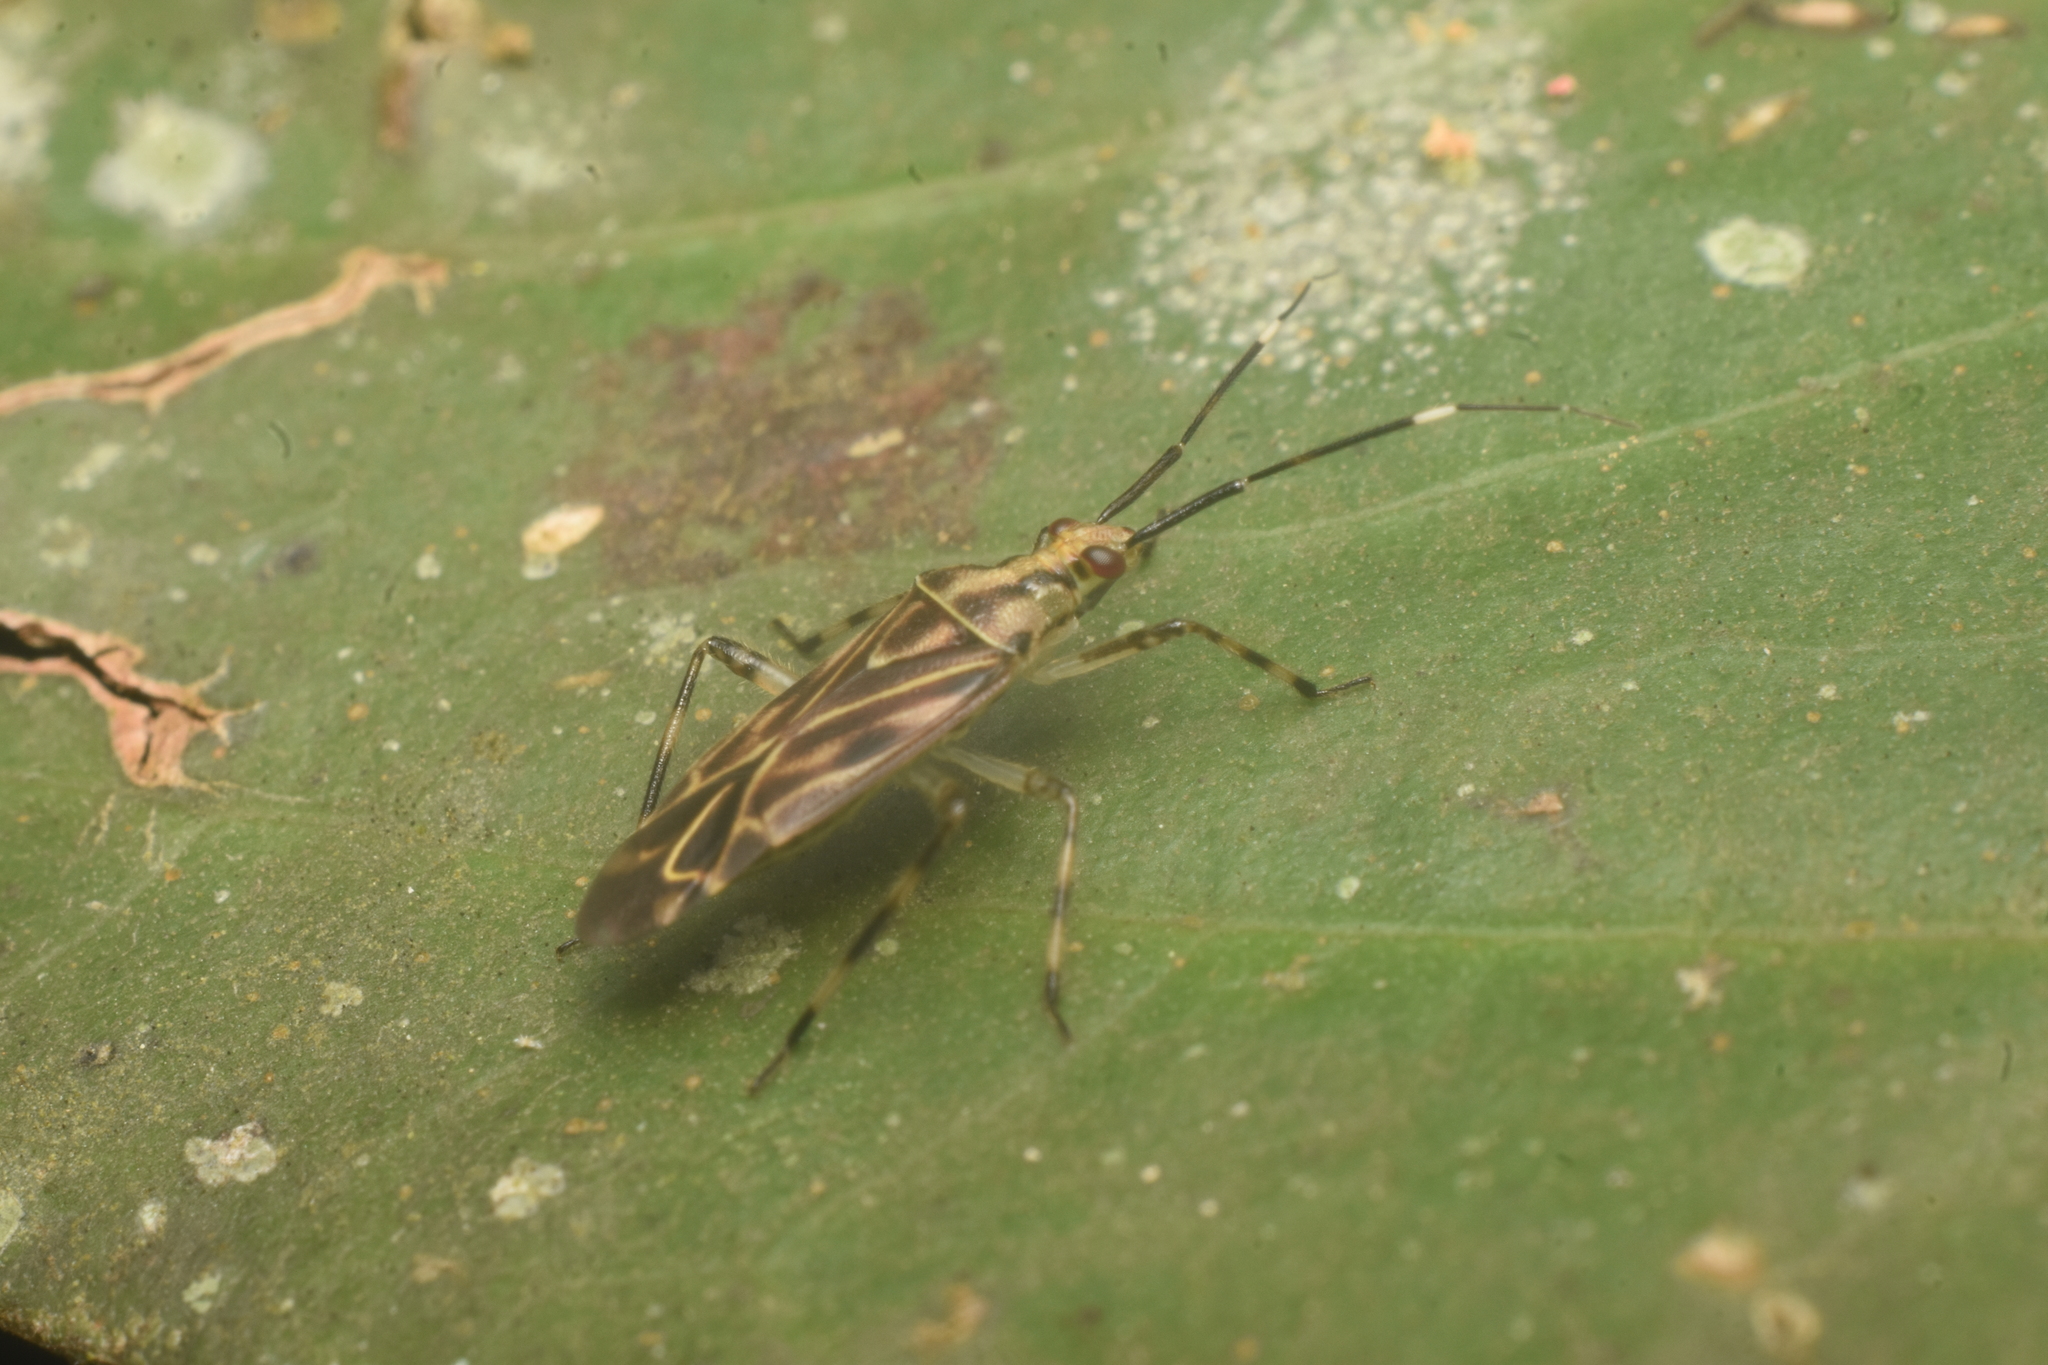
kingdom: Animalia
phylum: Arthropoda
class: Insecta
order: Hemiptera
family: Miridae
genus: Piasus
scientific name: Piasus cribricollis
